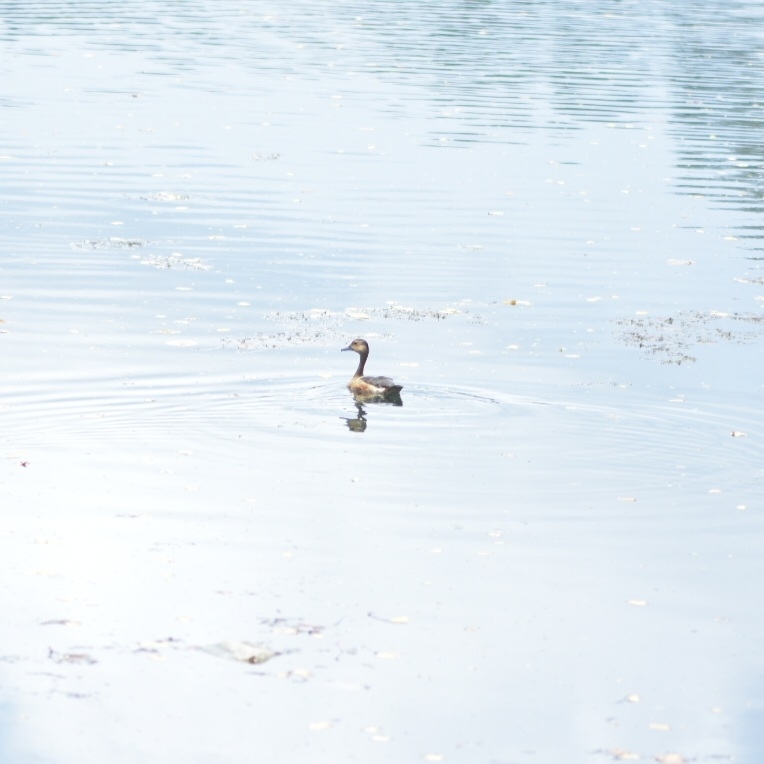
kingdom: Animalia
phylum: Chordata
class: Aves
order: Anseriformes
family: Anatidae
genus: Dendrocygna
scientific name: Dendrocygna javanica
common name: Lesser whistling-duck
